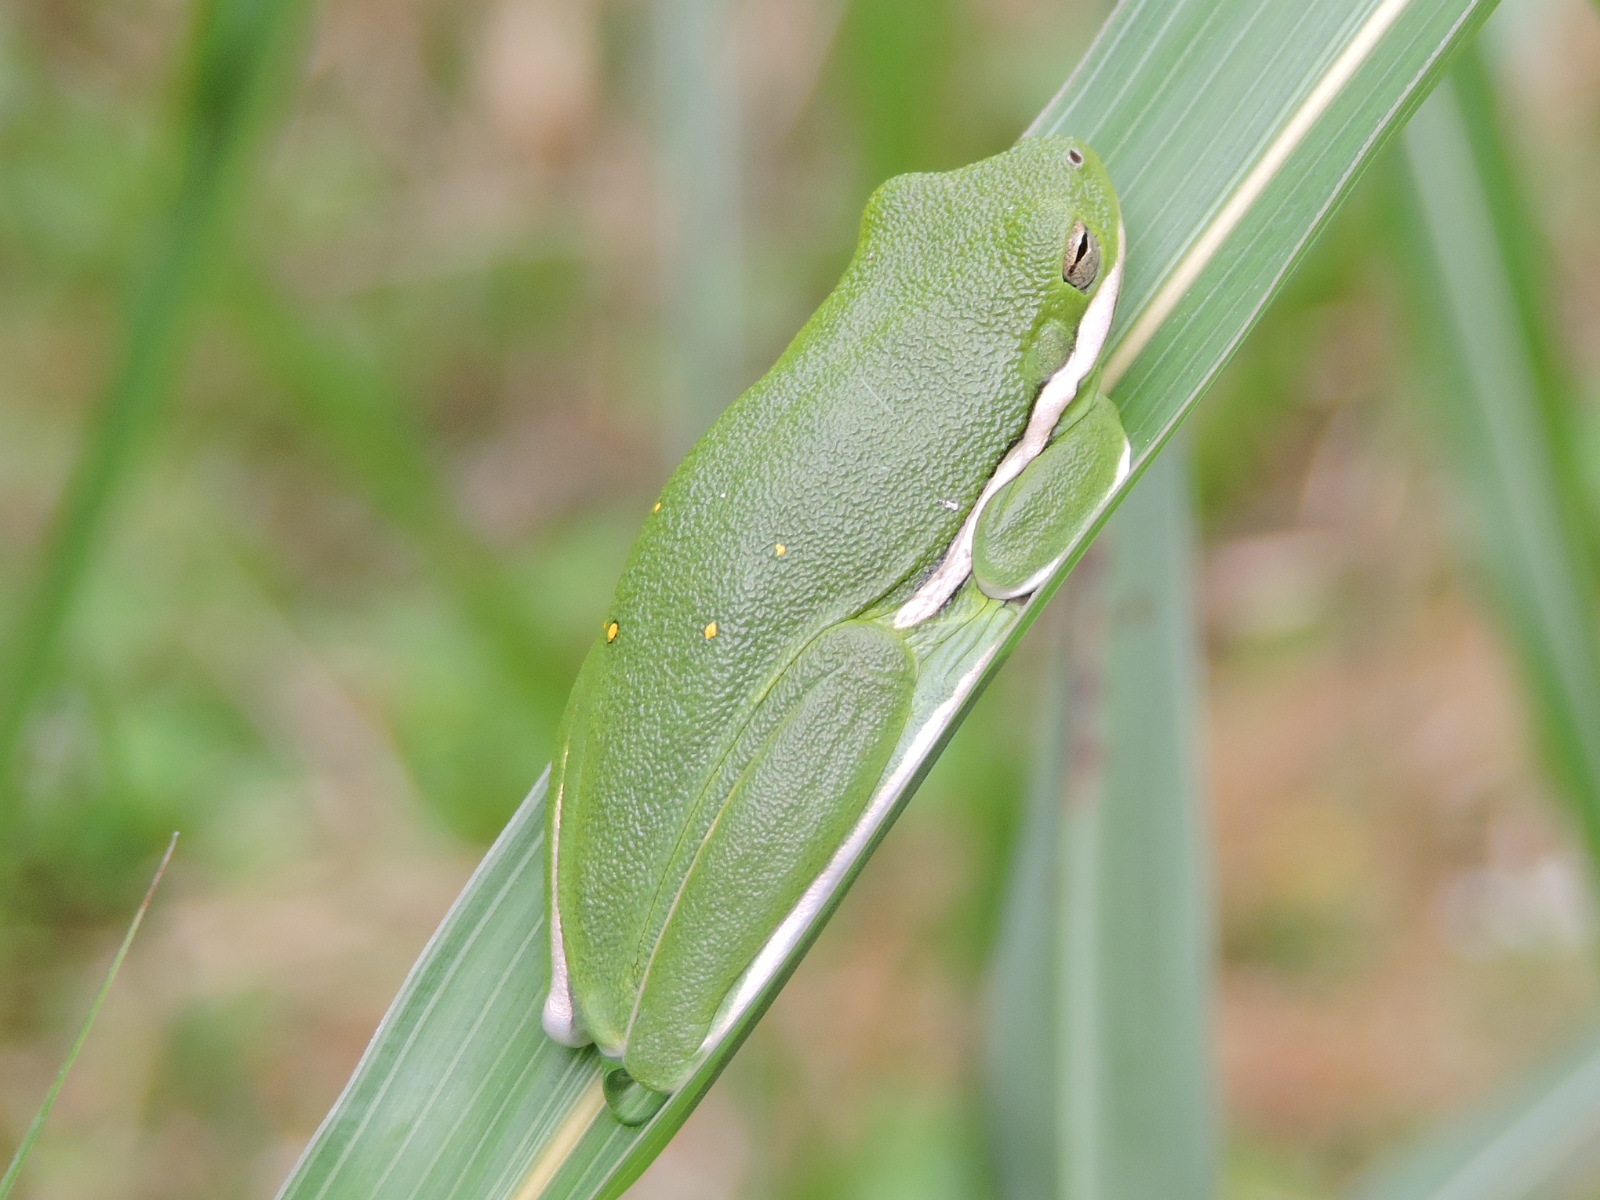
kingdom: Animalia
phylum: Chordata
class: Amphibia
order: Anura
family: Hylidae
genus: Dryophytes
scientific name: Dryophytes cinereus
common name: Green treefrog
